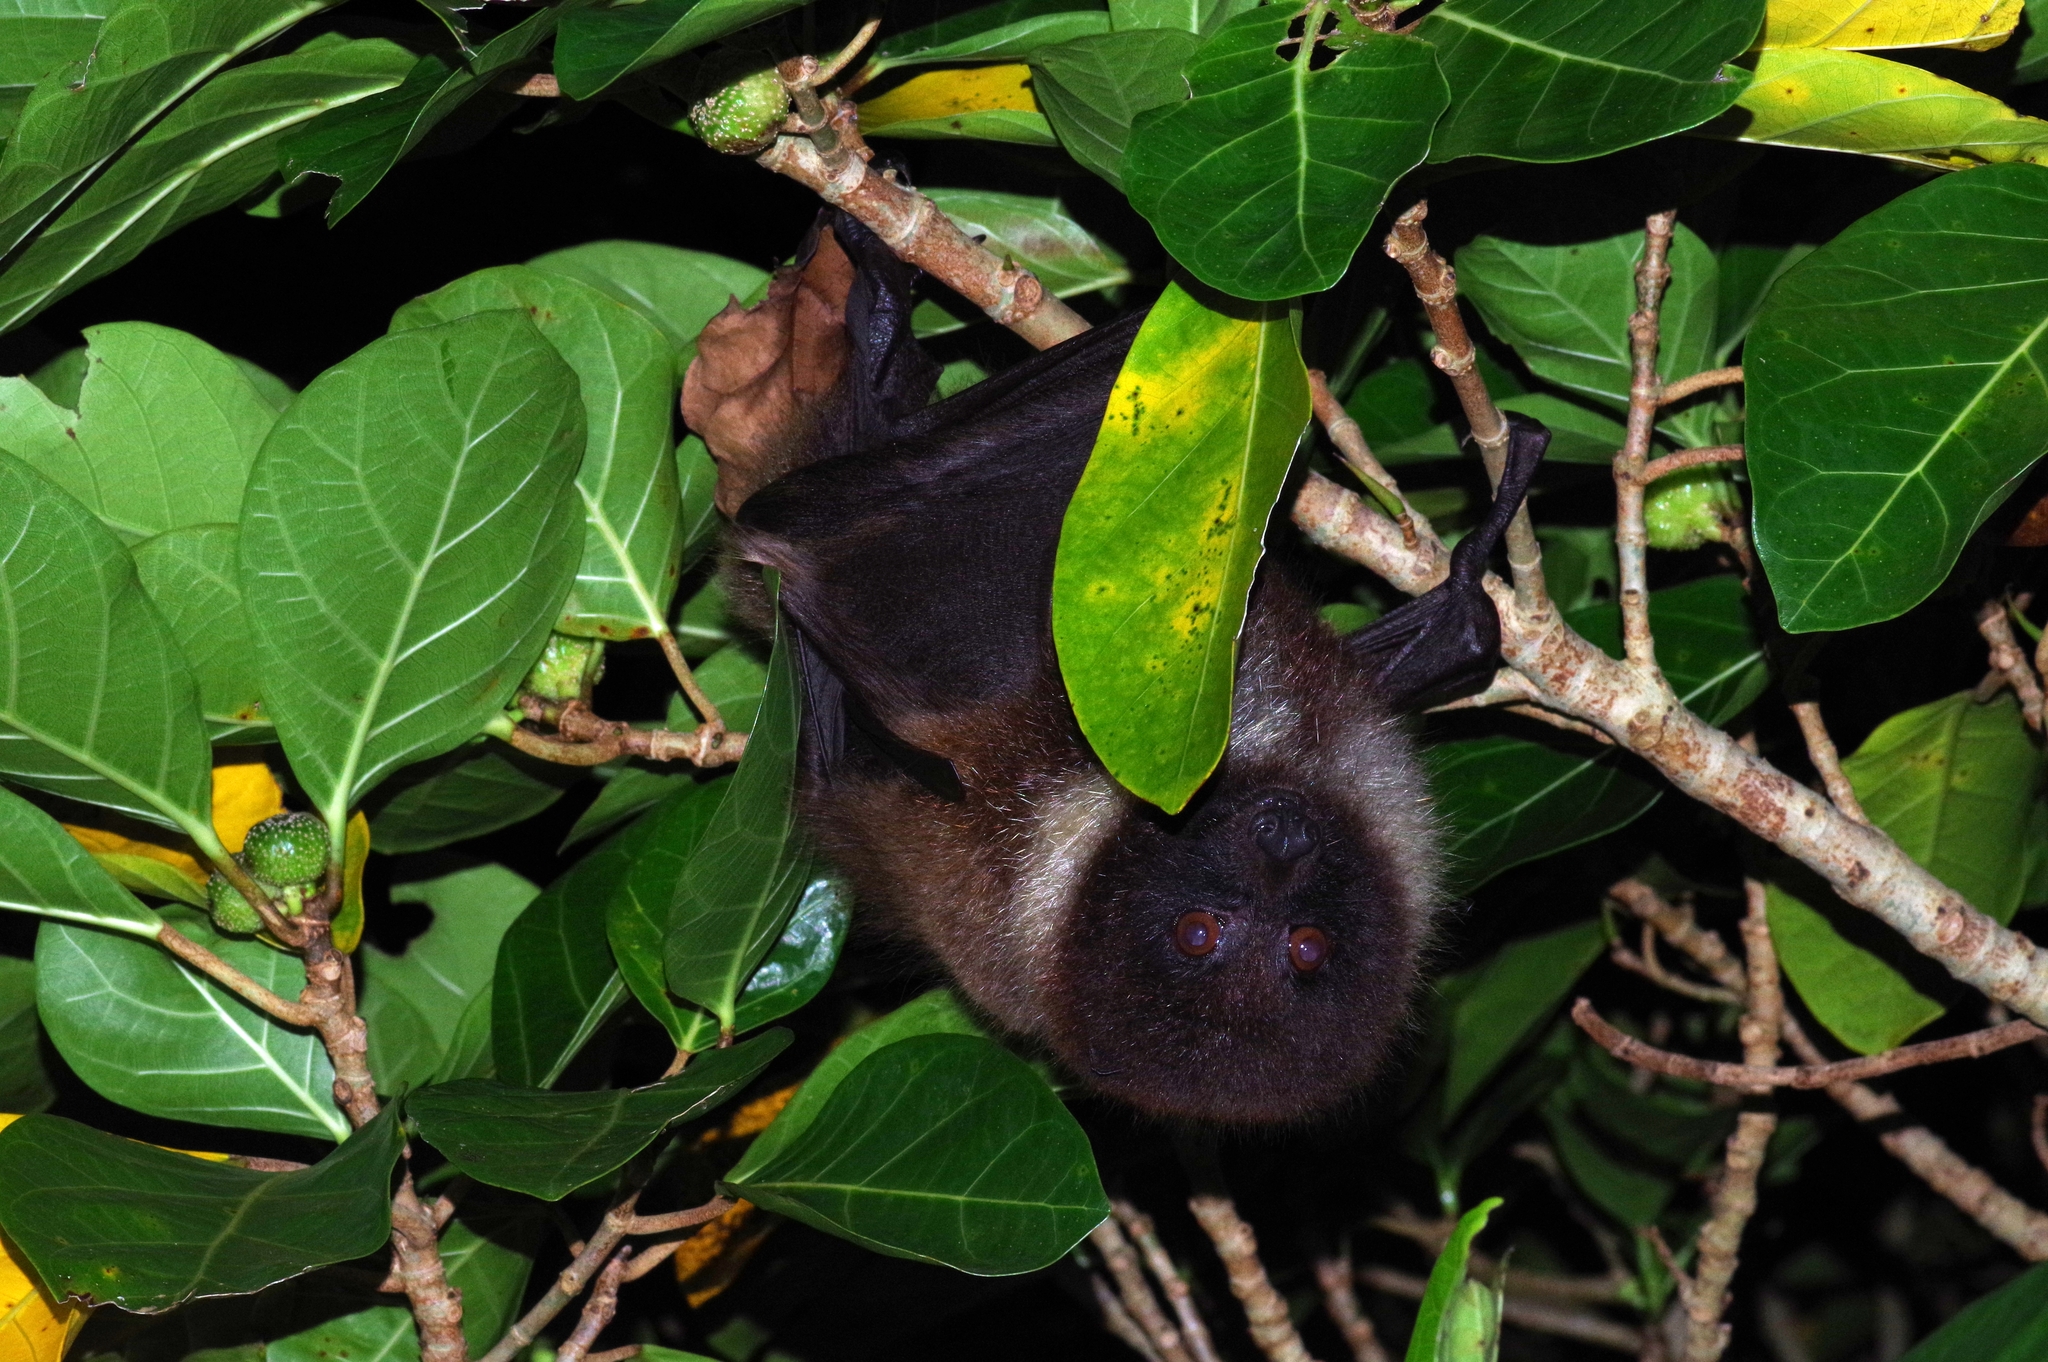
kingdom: Animalia
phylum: Chordata
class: Mammalia
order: Chiroptera
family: Pteropodidae
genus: Pteropus
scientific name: Pteropus dasymallus
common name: Ryukyu flying fox
